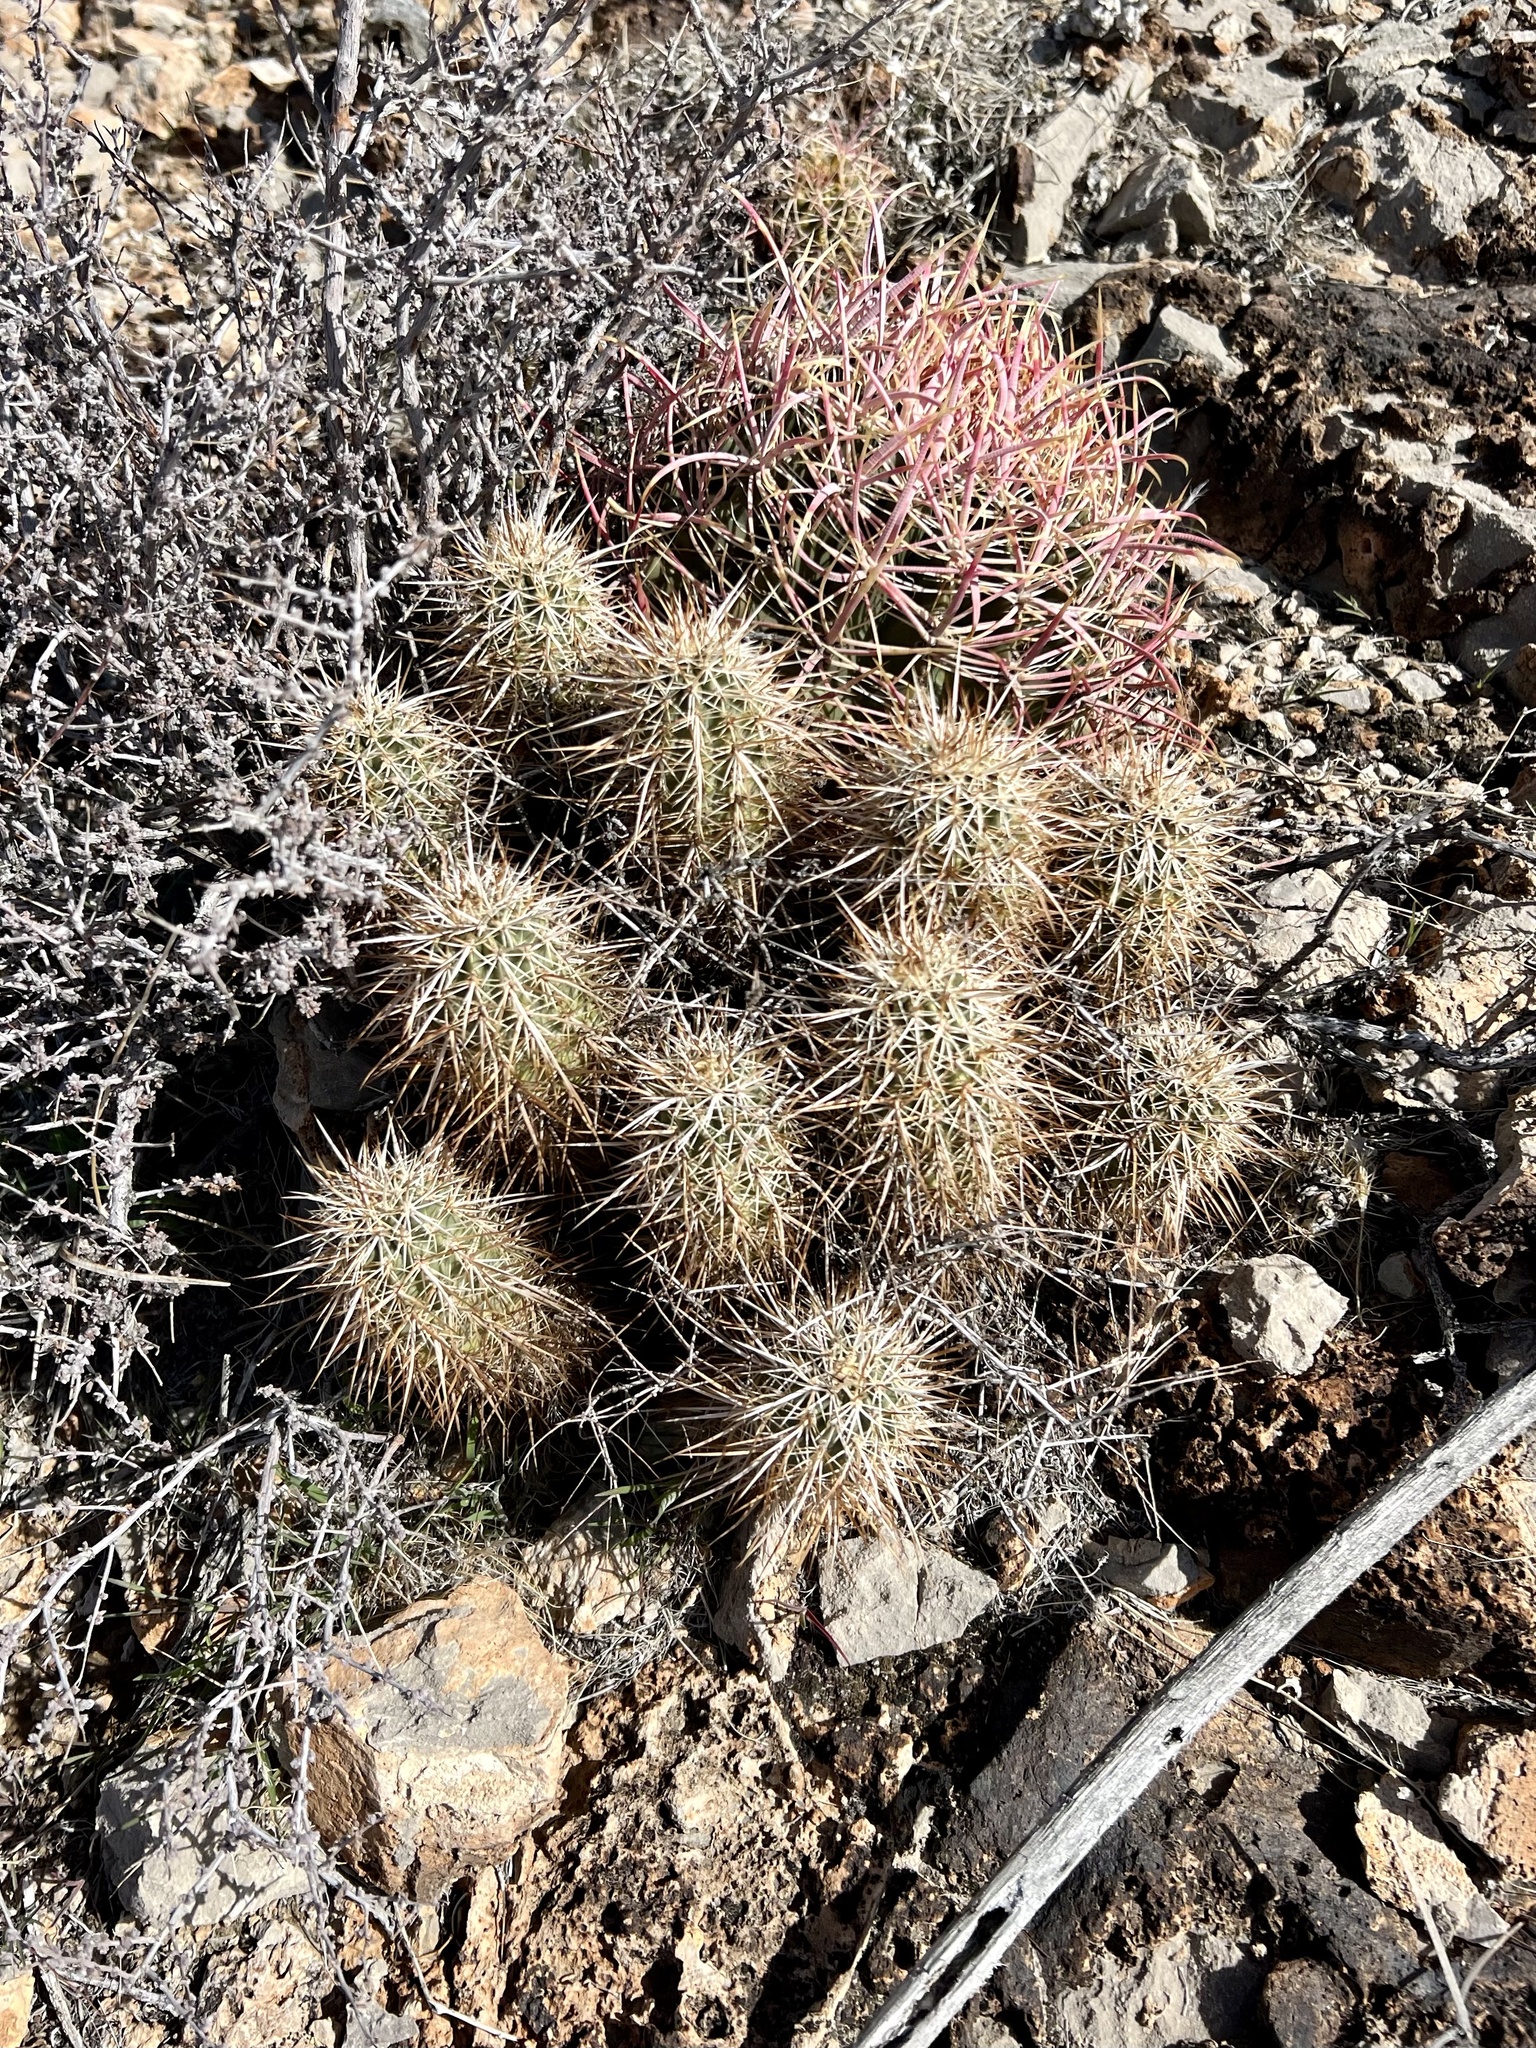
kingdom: Plantae
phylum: Tracheophyta
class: Magnoliopsida
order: Caryophyllales
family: Cactaceae
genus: Echinocereus
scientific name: Echinocereus engelmannii
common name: Engelmann's hedgehog cactus
